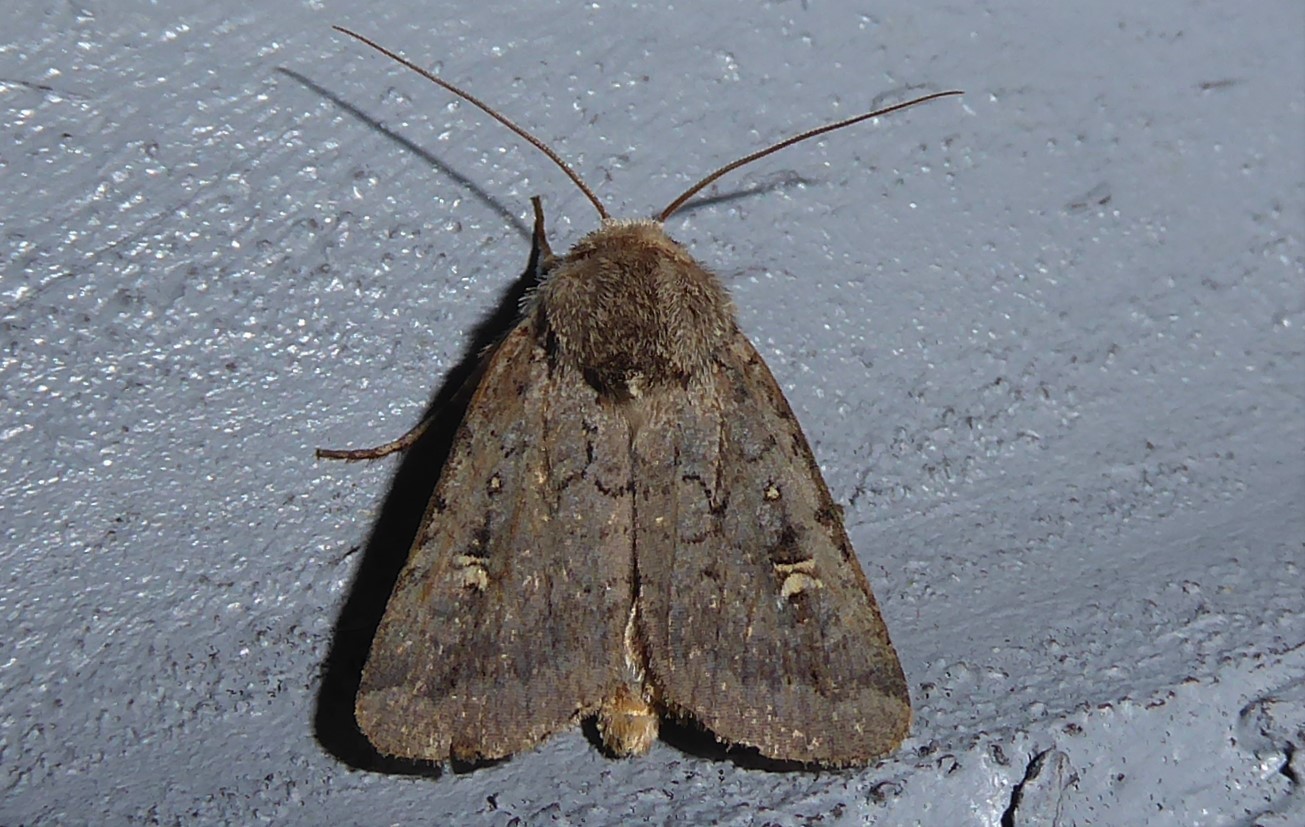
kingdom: Animalia
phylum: Arthropoda
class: Insecta
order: Lepidoptera
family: Noctuidae
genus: Proteuxoa
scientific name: Proteuxoa tetronycha
